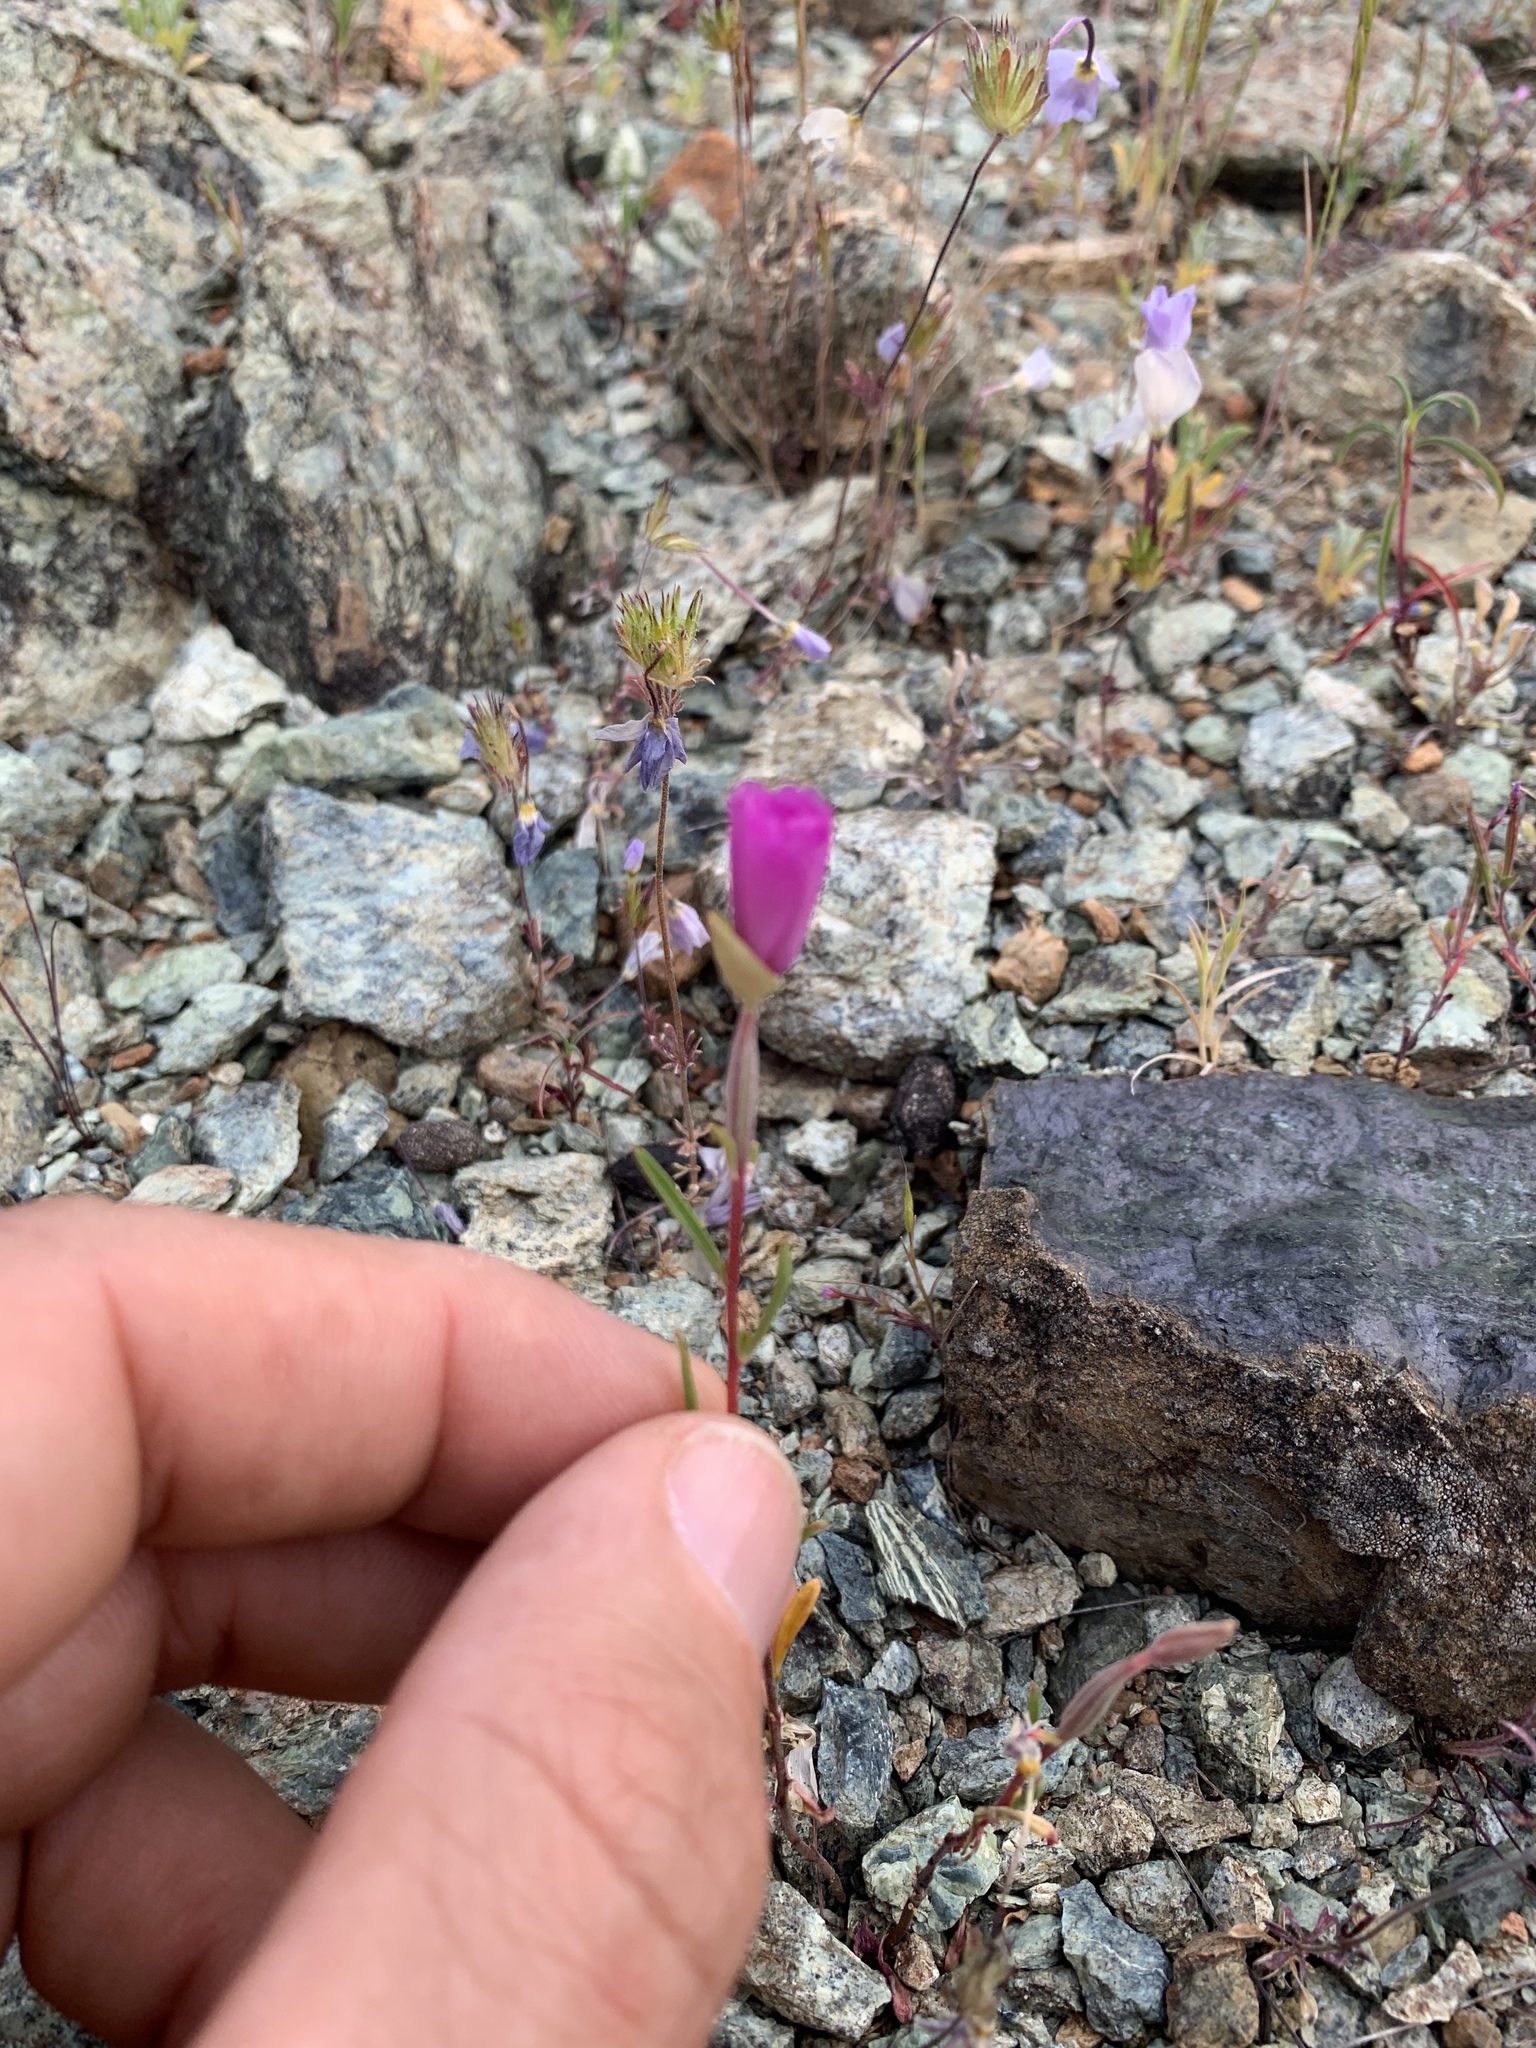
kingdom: Plantae
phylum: Tracheophyta
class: Magnoliopsida
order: Myrtales
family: Onagraceae
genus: Clarkia
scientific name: Clarkia gracilis
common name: Graceful clarkia
